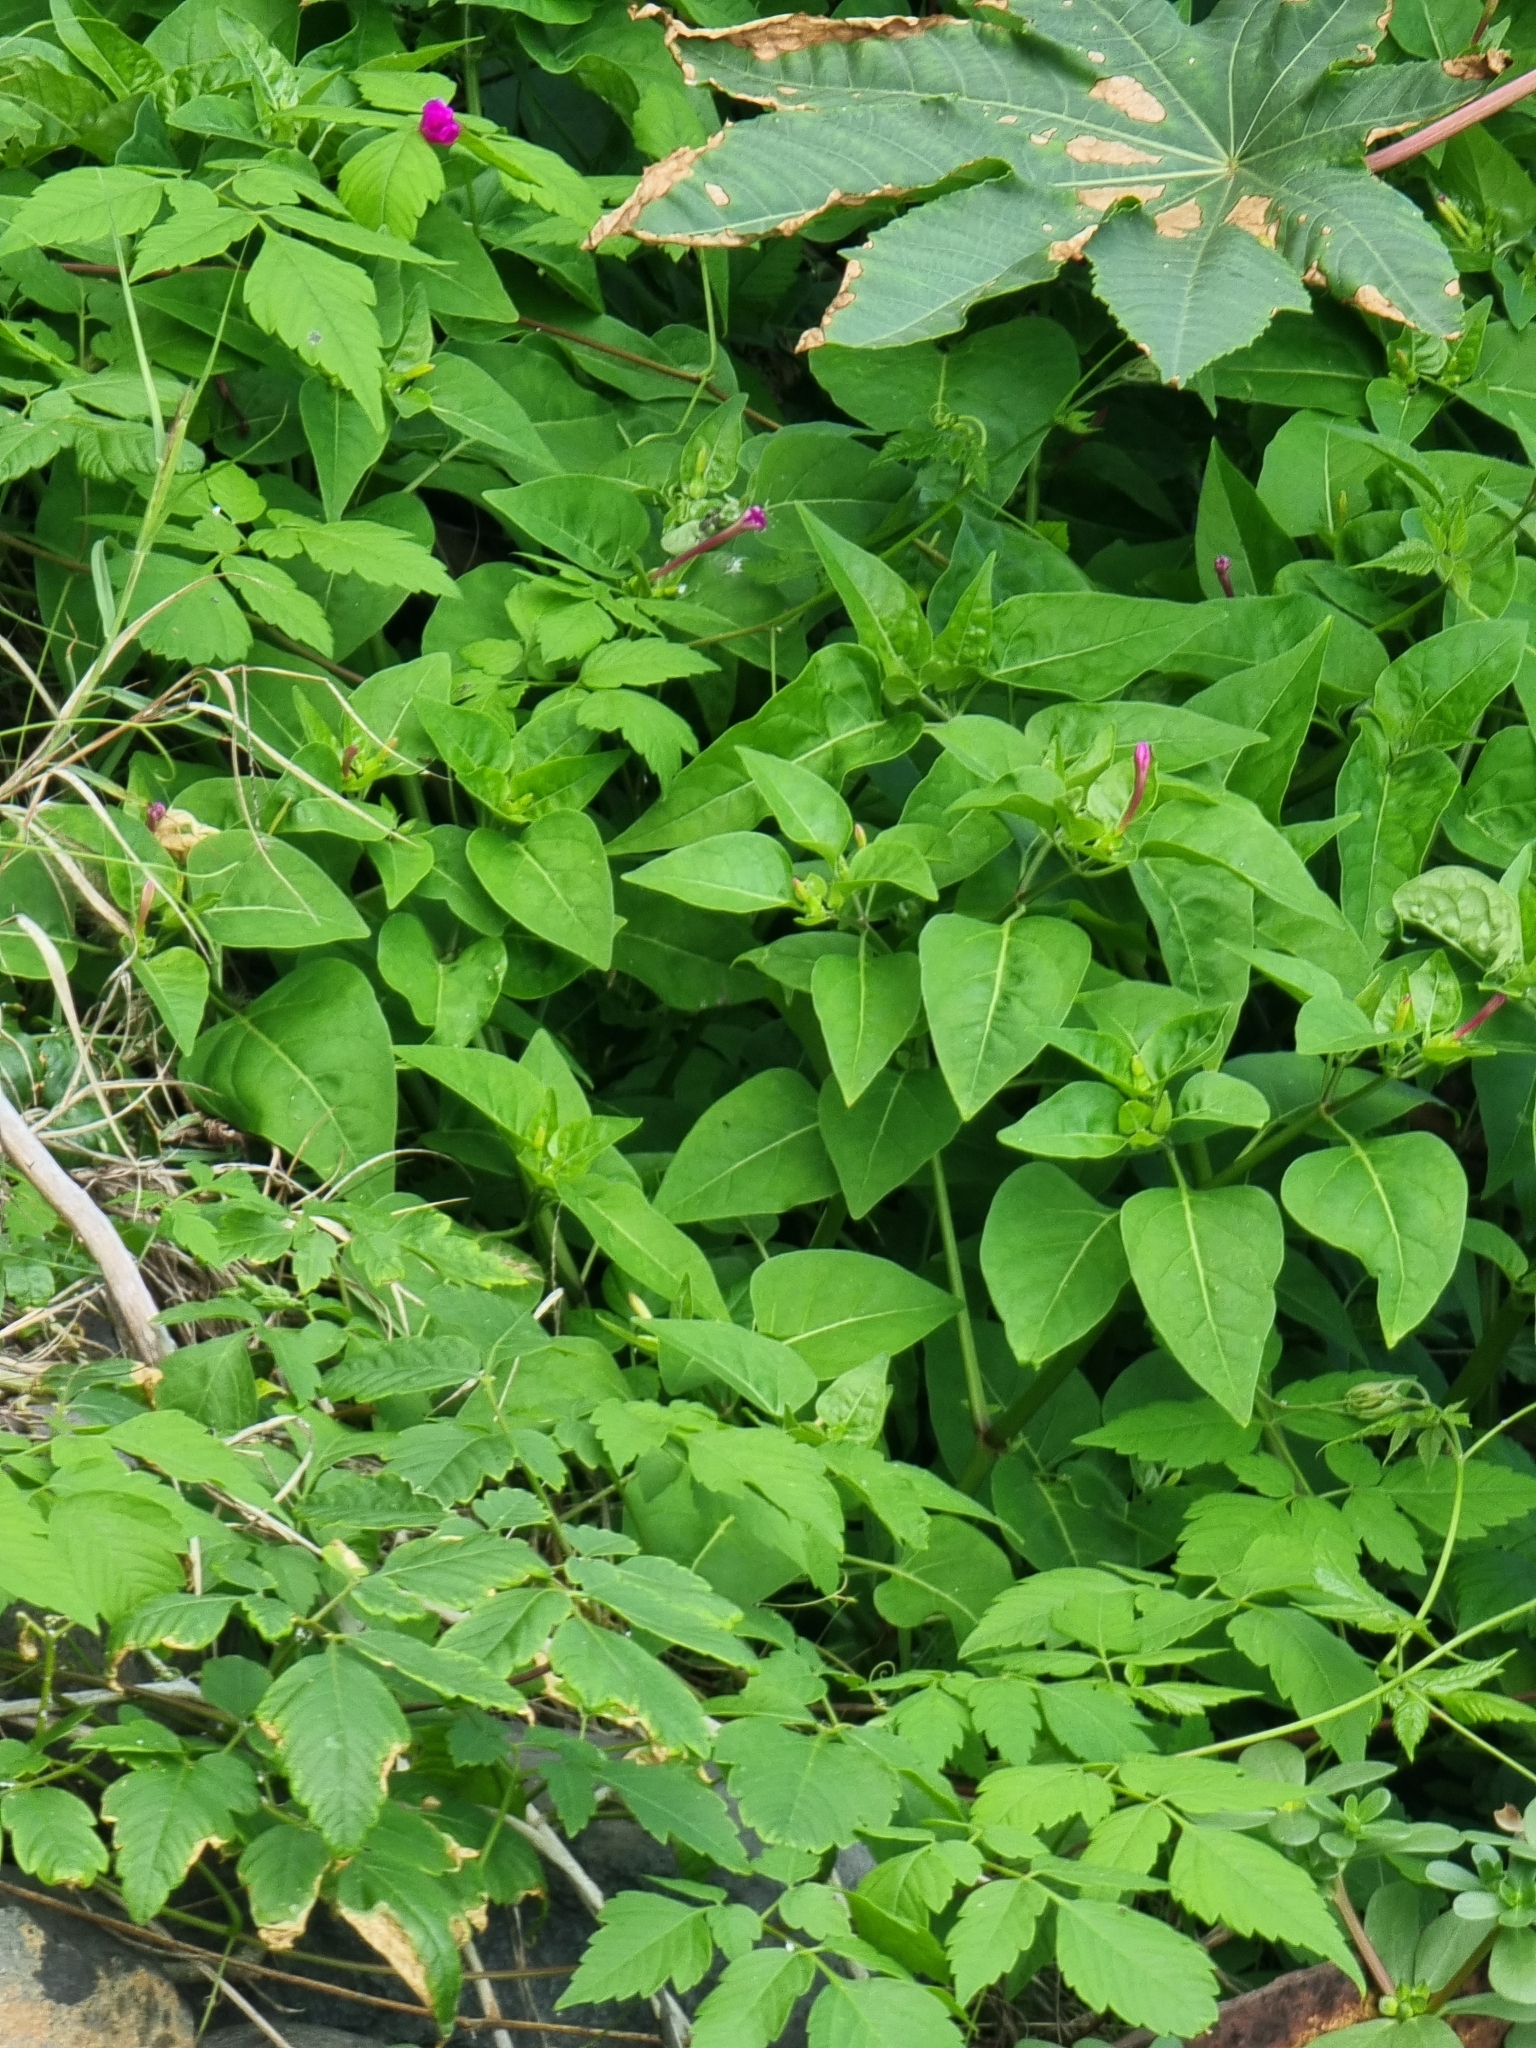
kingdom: Plantae
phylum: Tracheophyta
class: Magnoliopsida
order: Caryophyllales
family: Nyctaginaceae
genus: Mirabilis
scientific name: Mirabilis jalapa
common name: Marvel-of-peru
